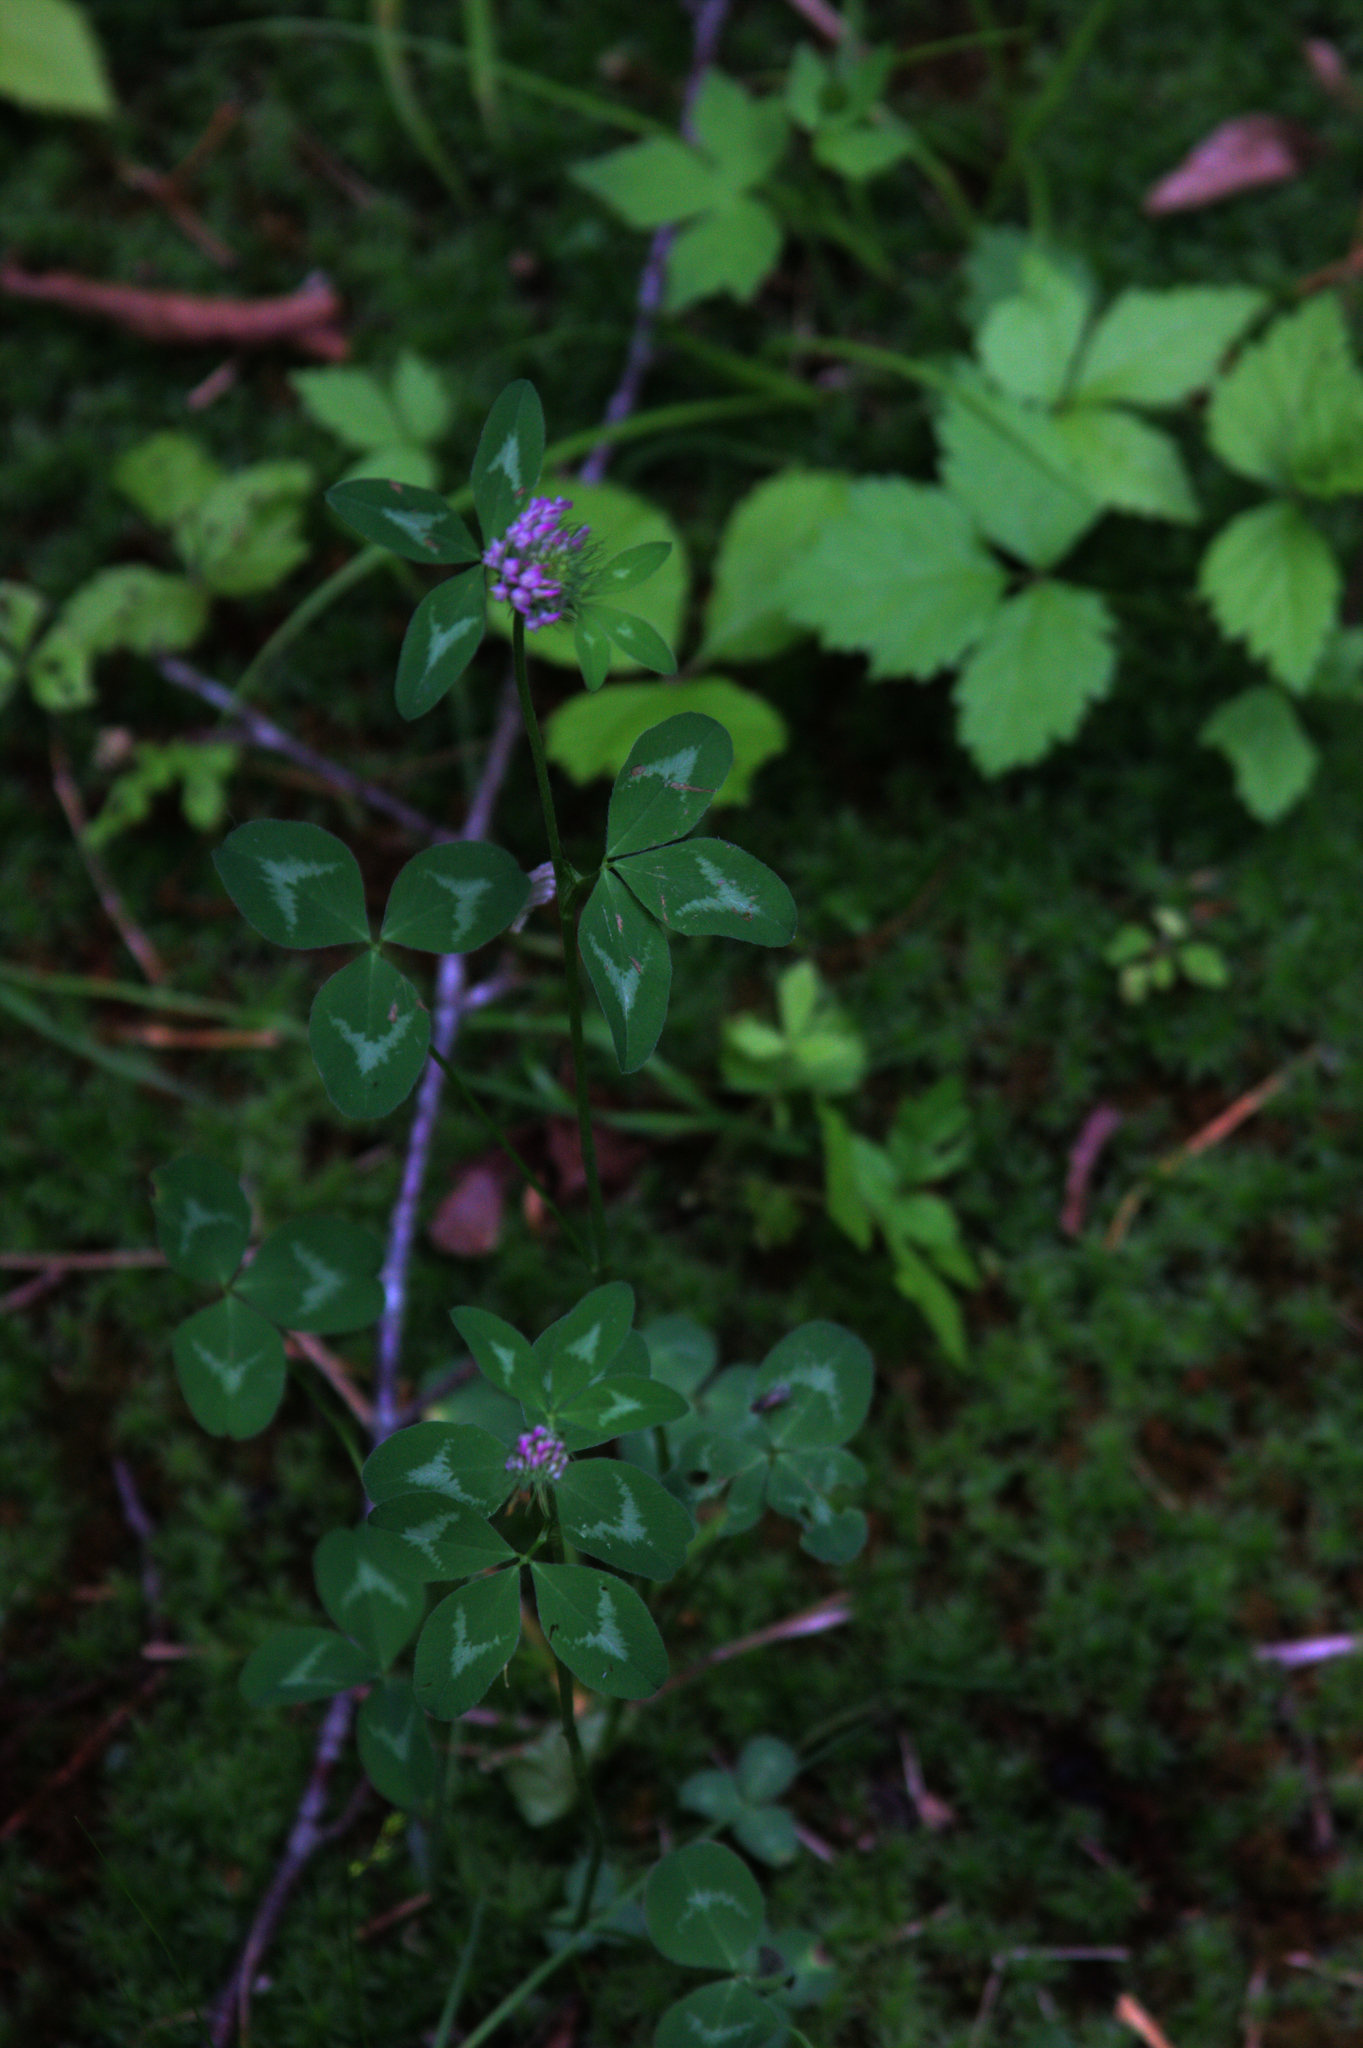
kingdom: Plantae
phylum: Tracheophyta
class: Magnoliopsida
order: Fabales
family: Fabaceae
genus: Trifolium
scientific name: Trifolium pratense
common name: Red clover
